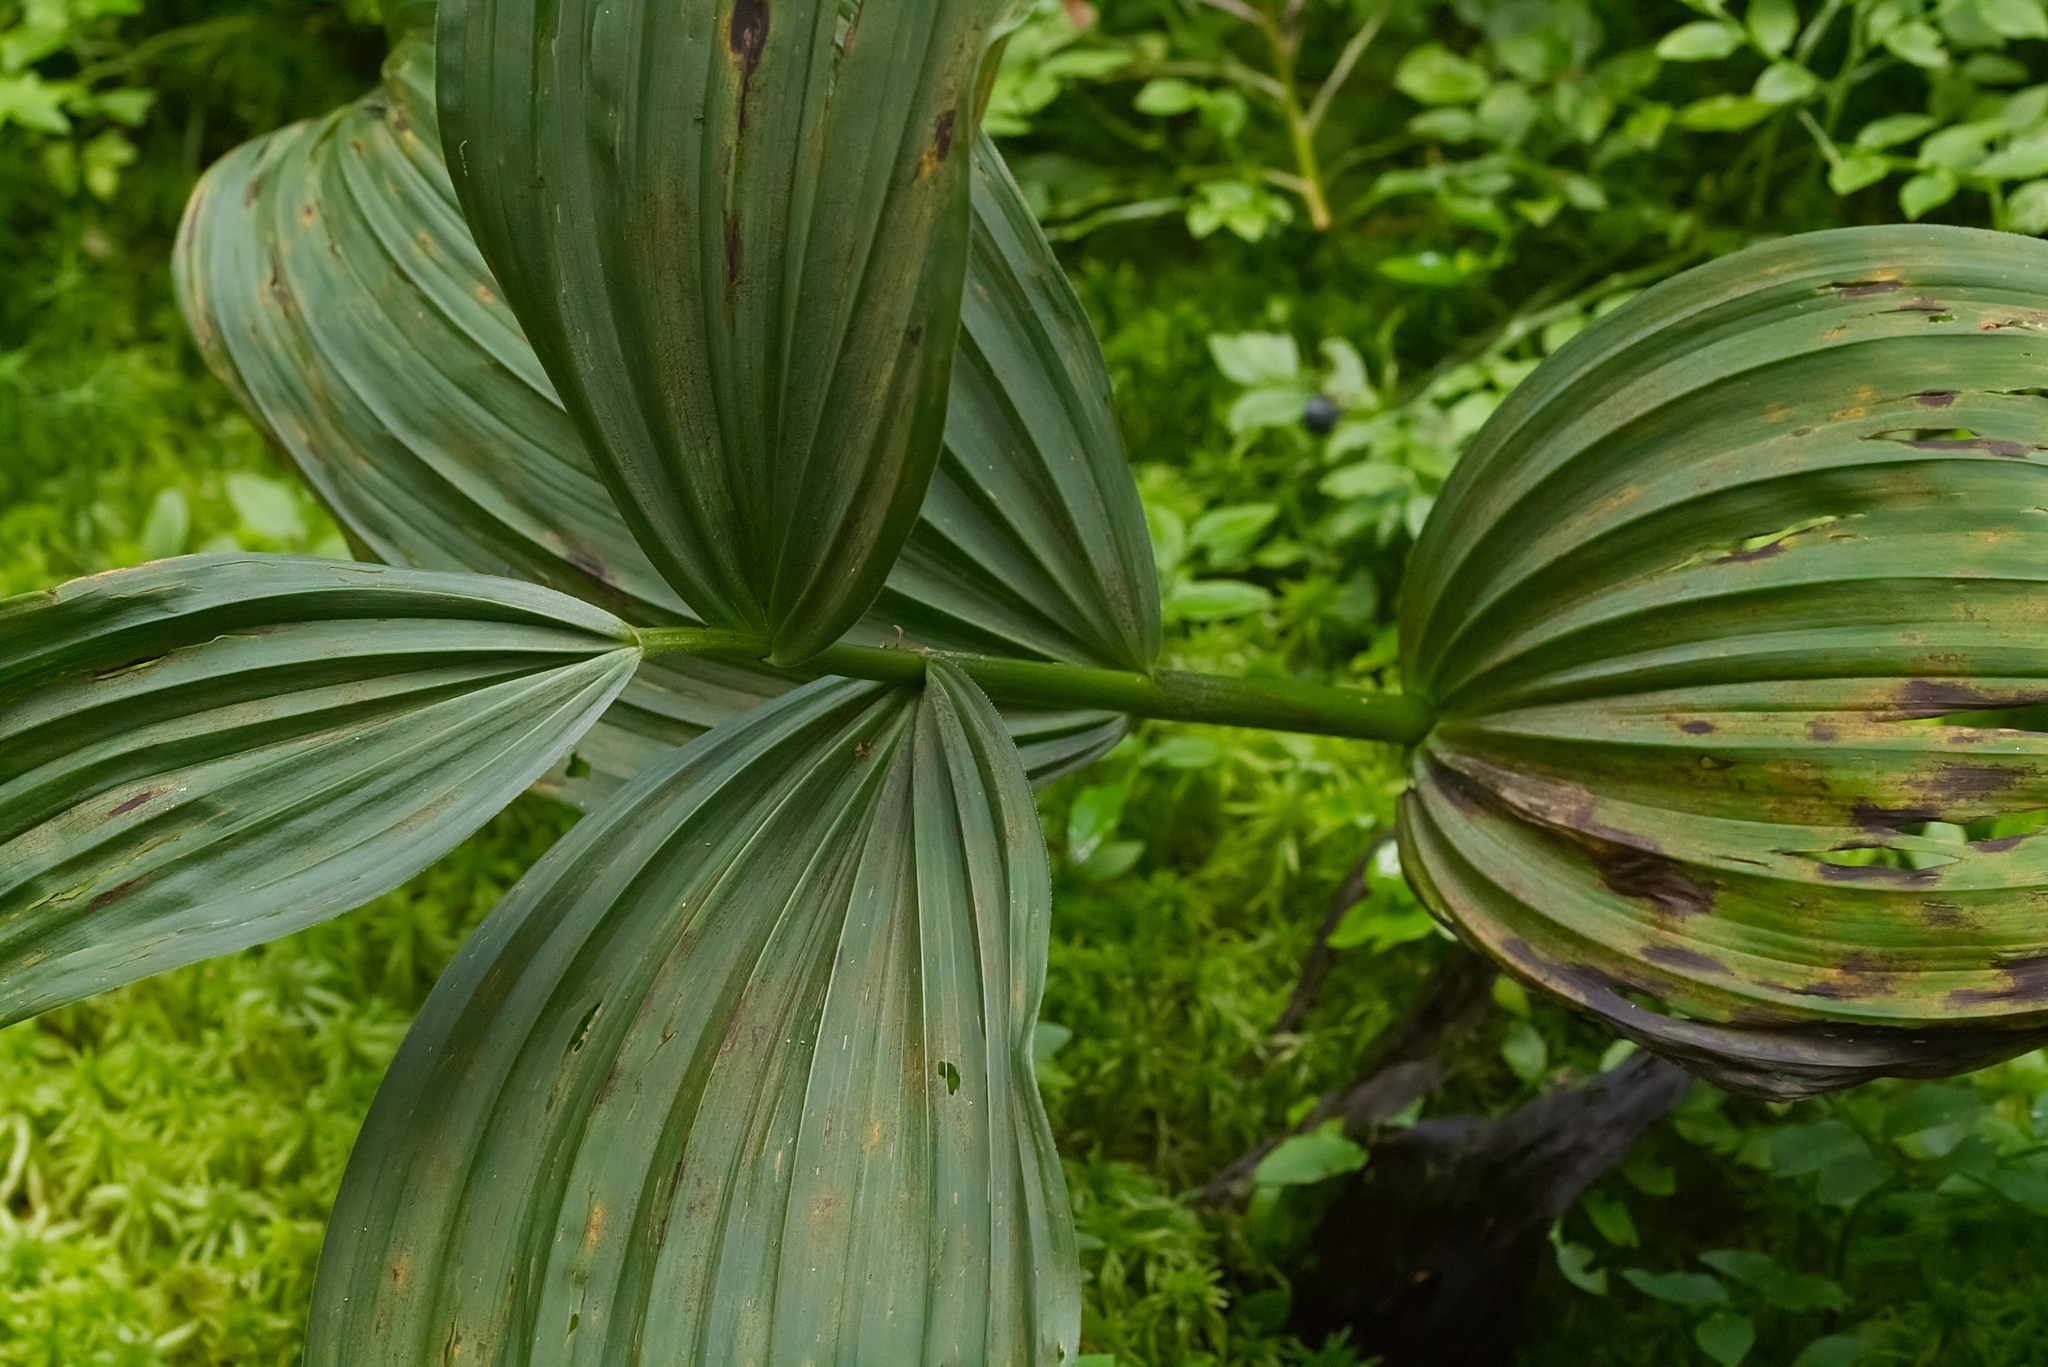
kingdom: Plantae
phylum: Tracheophyta
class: Liliopsida
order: Liliales
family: Melanthiaceae
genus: Veratrum
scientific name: Veratrum album
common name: White veratrum
